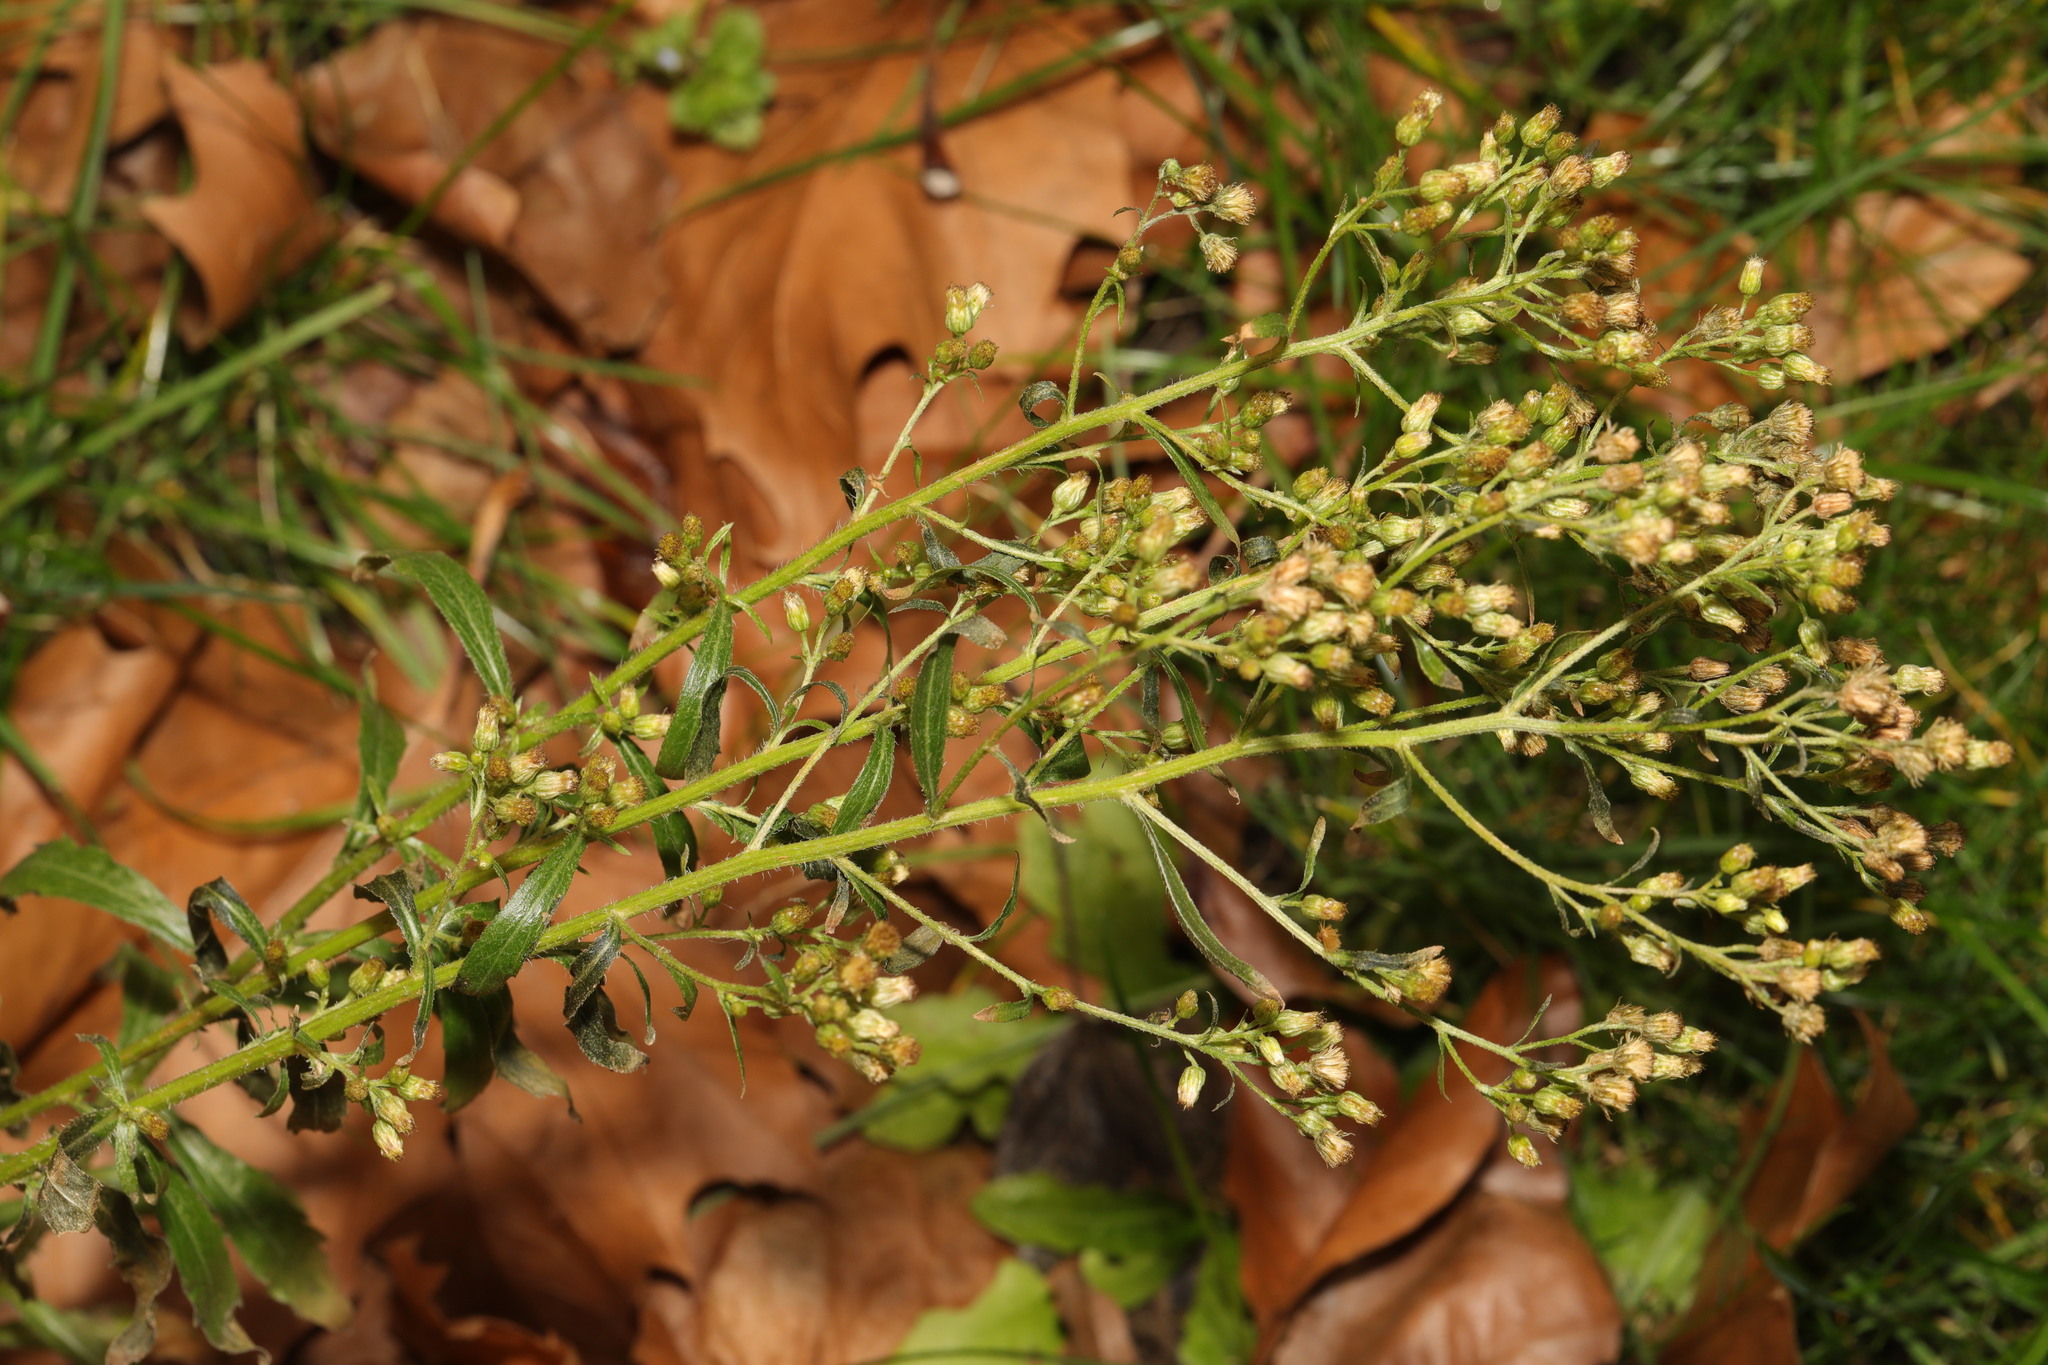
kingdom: Plantae
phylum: Tracheophyta
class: Magnoliopsida
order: Asterales
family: Asteraceae
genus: Erigeron
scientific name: Erigeron sumatrensis
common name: Daisy
